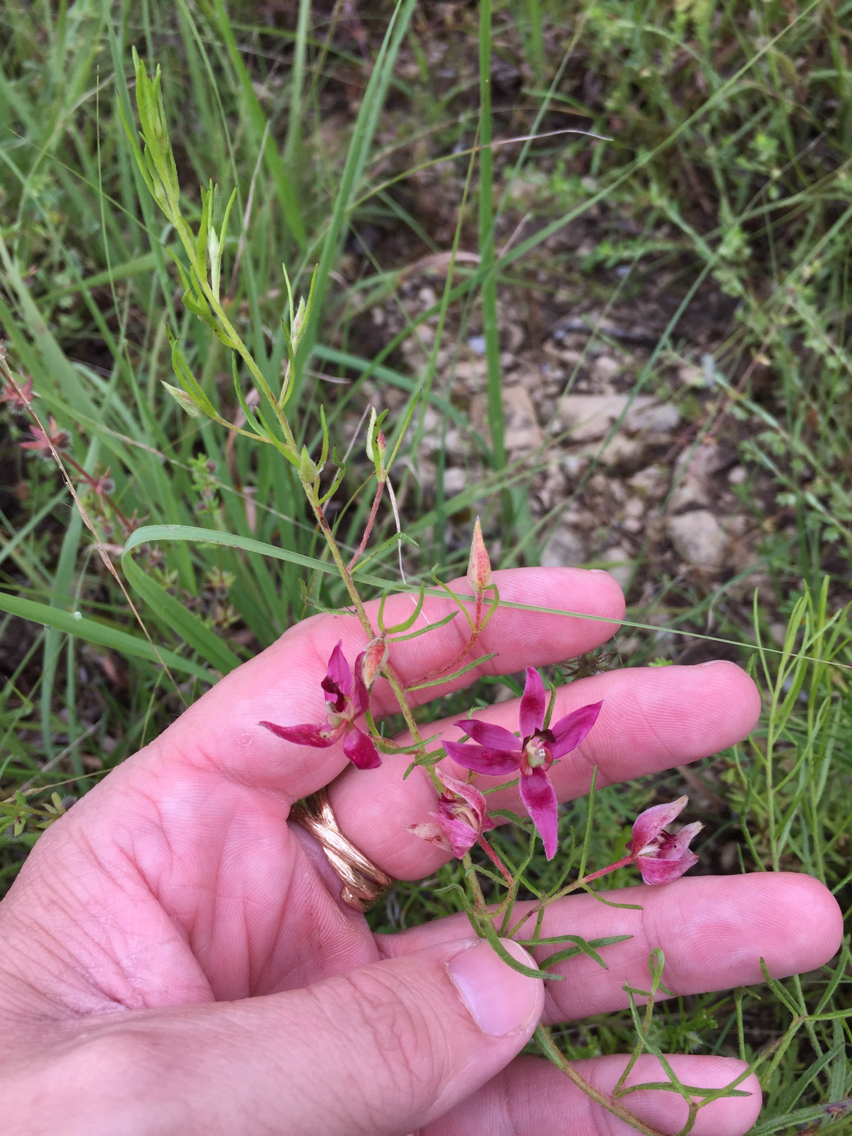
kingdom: Plantae
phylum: Tracheophyta
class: Magnoliopsida
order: Zygophyllales
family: Krameriaceae
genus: Krameria
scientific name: Krameria lanceolata
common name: Ratany
